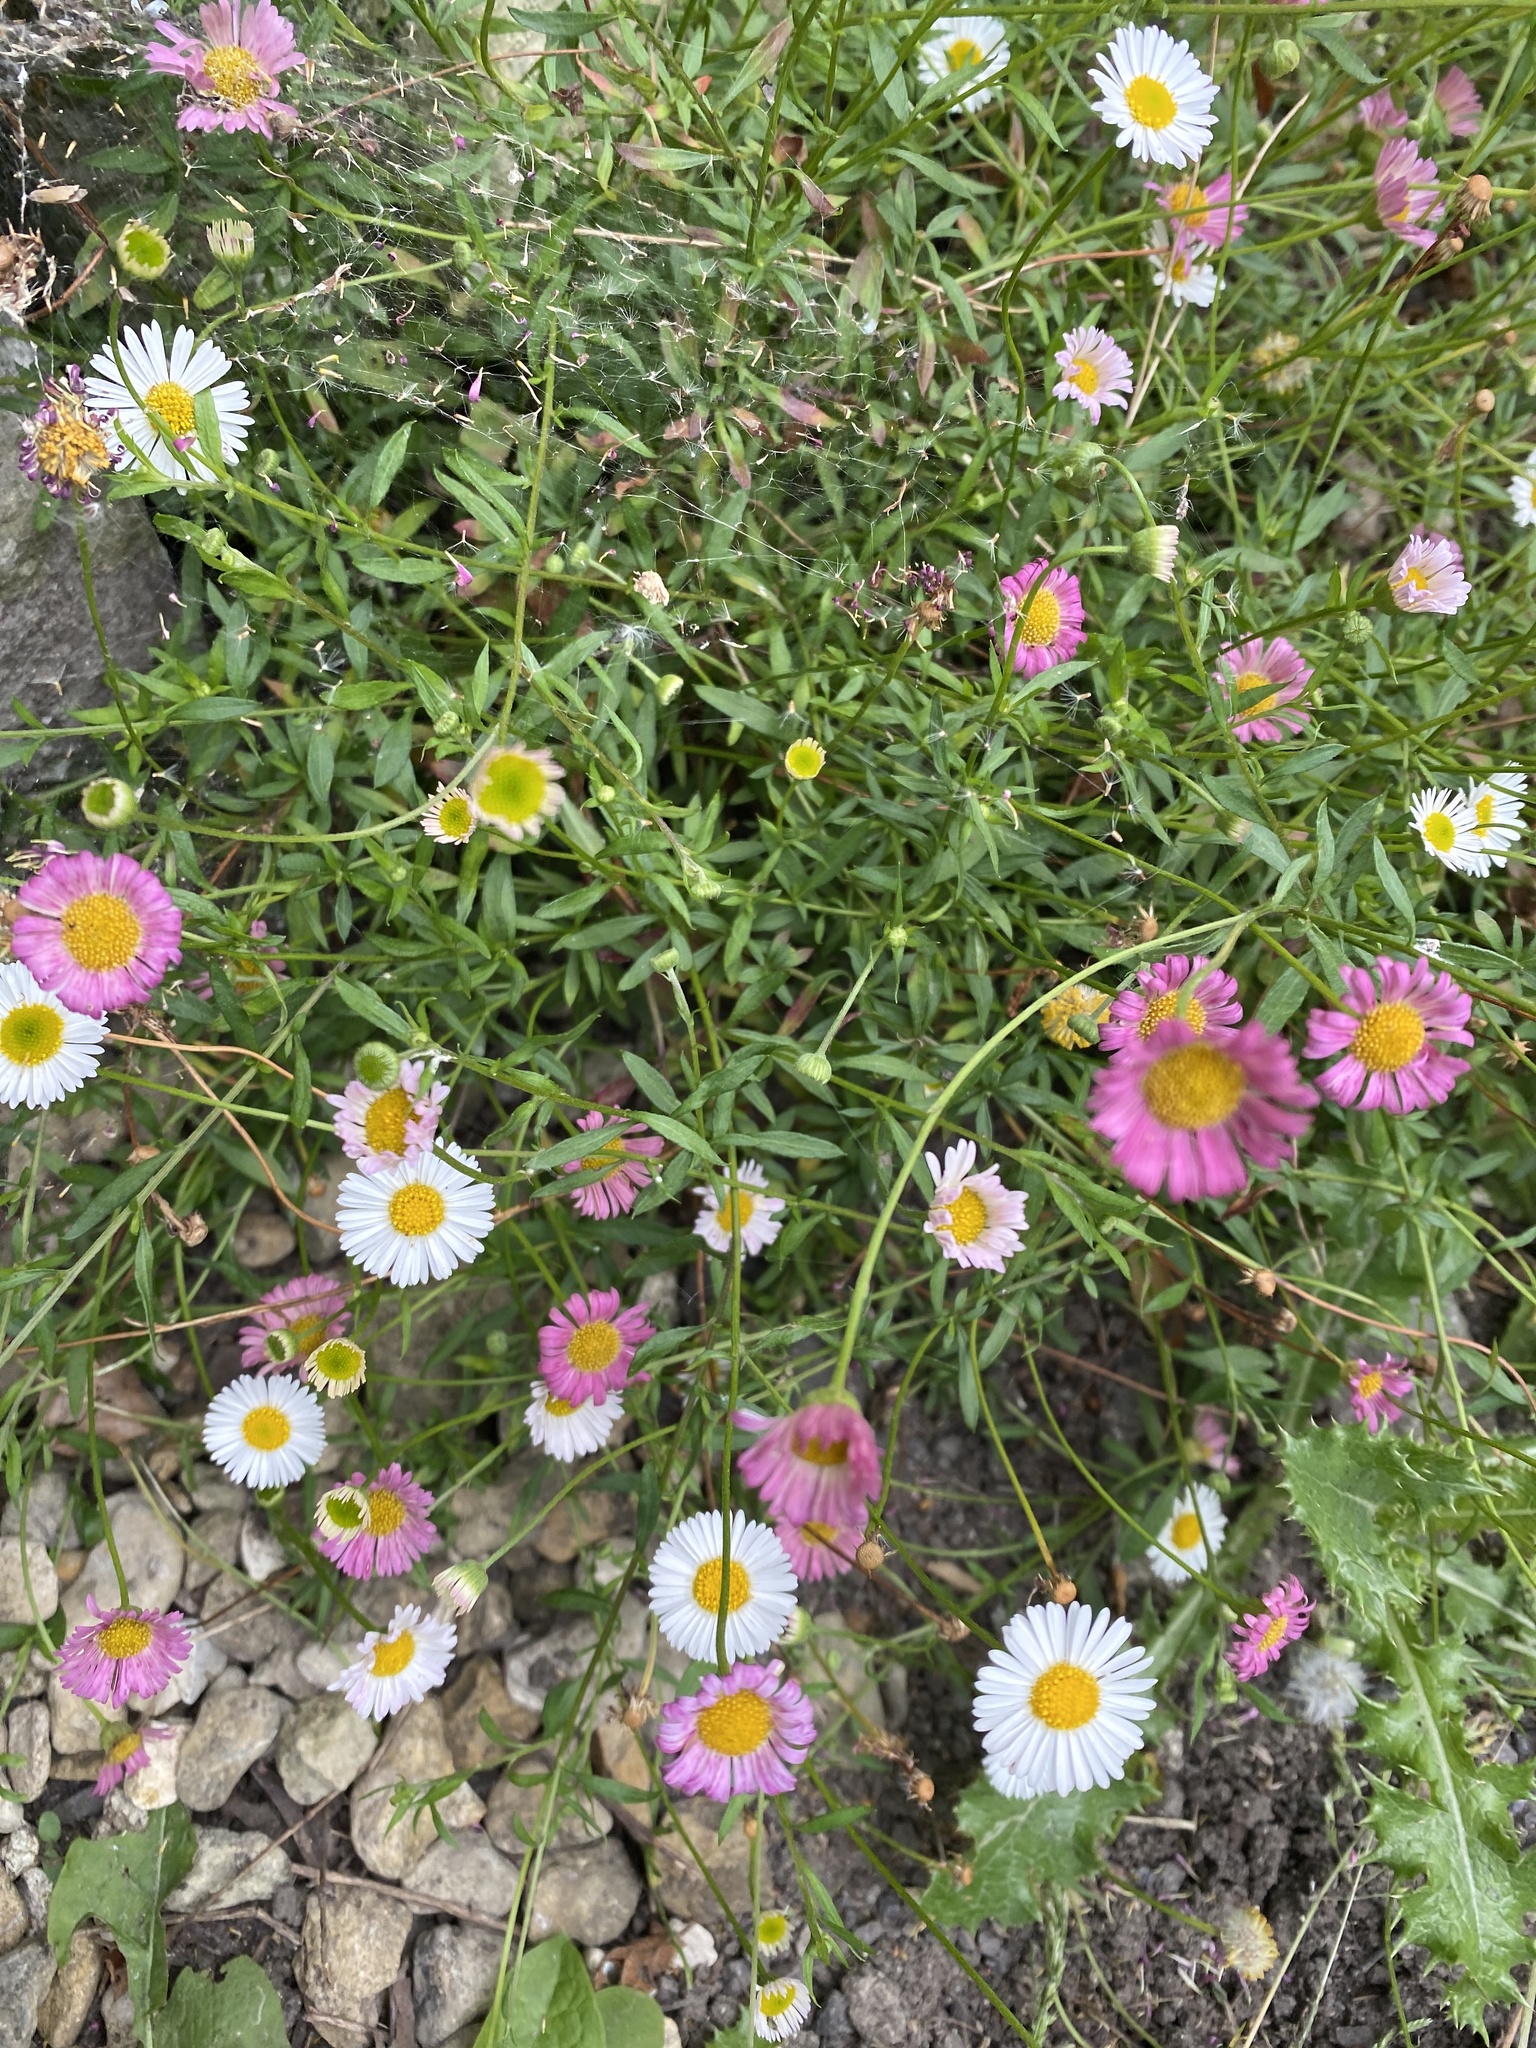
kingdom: Plantae
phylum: Tracheophyta
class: Magnoliopsida
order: Asterales
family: Asteraceae
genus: Erigeron
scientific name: Erigeron karvinskianus
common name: Mexican fleabane
